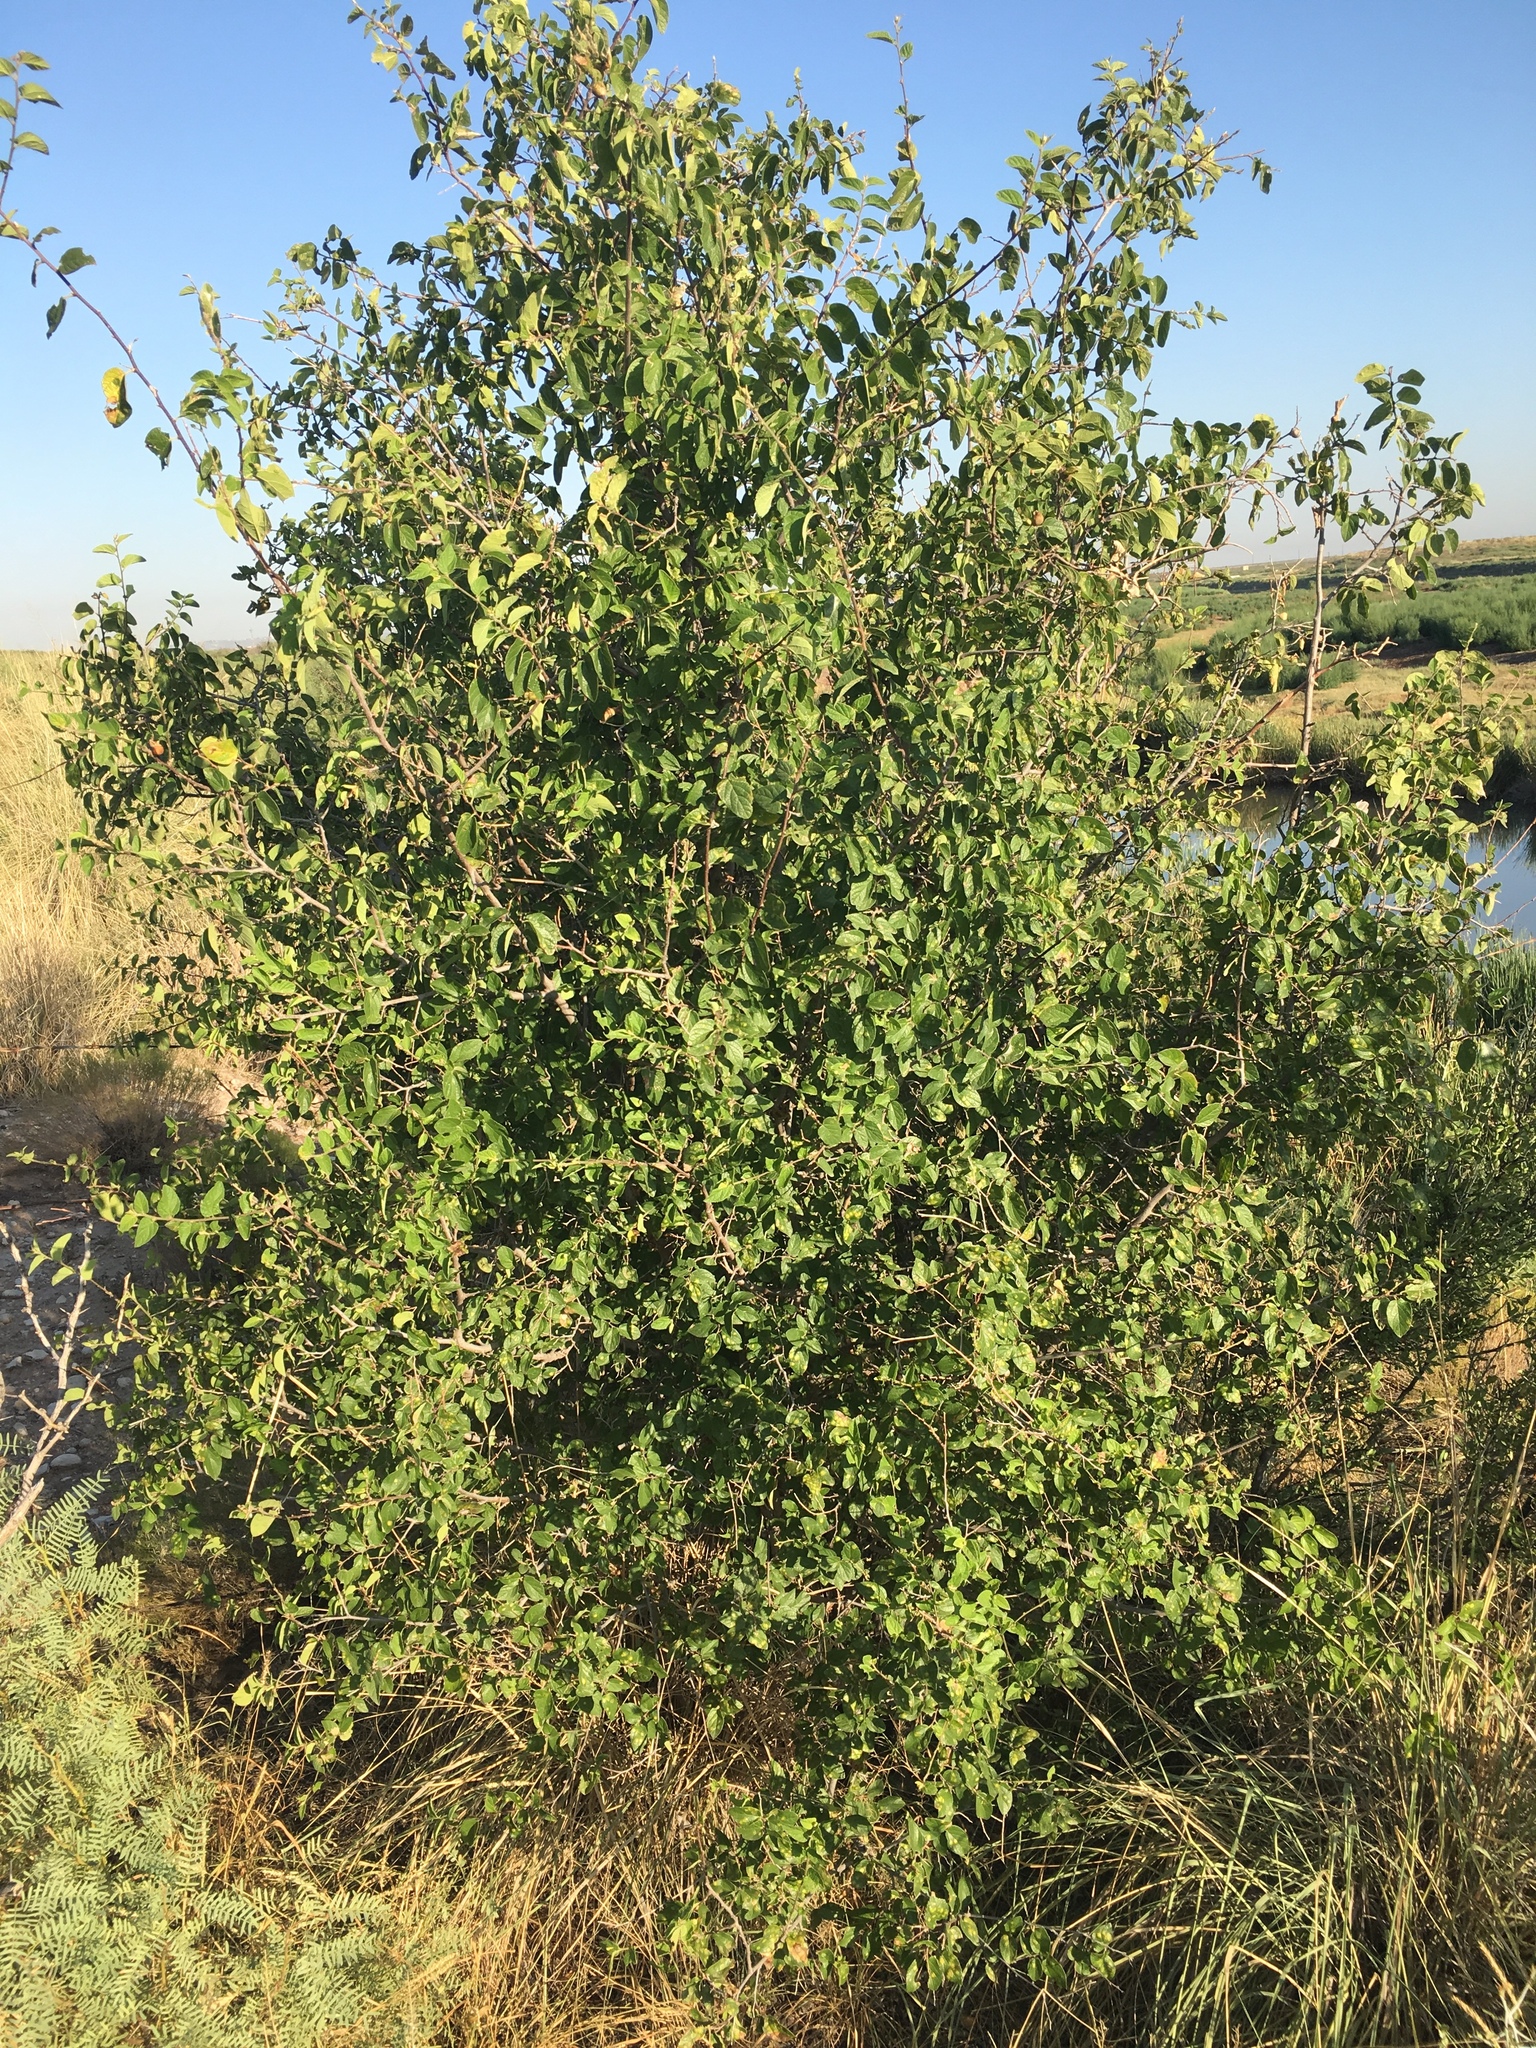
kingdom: Plantae
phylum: Tracheophyta
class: Magnoliopsida
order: Rosales
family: Cannabaceae
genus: Celtis
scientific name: Celtis reticulata
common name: Netleaf hackberry
